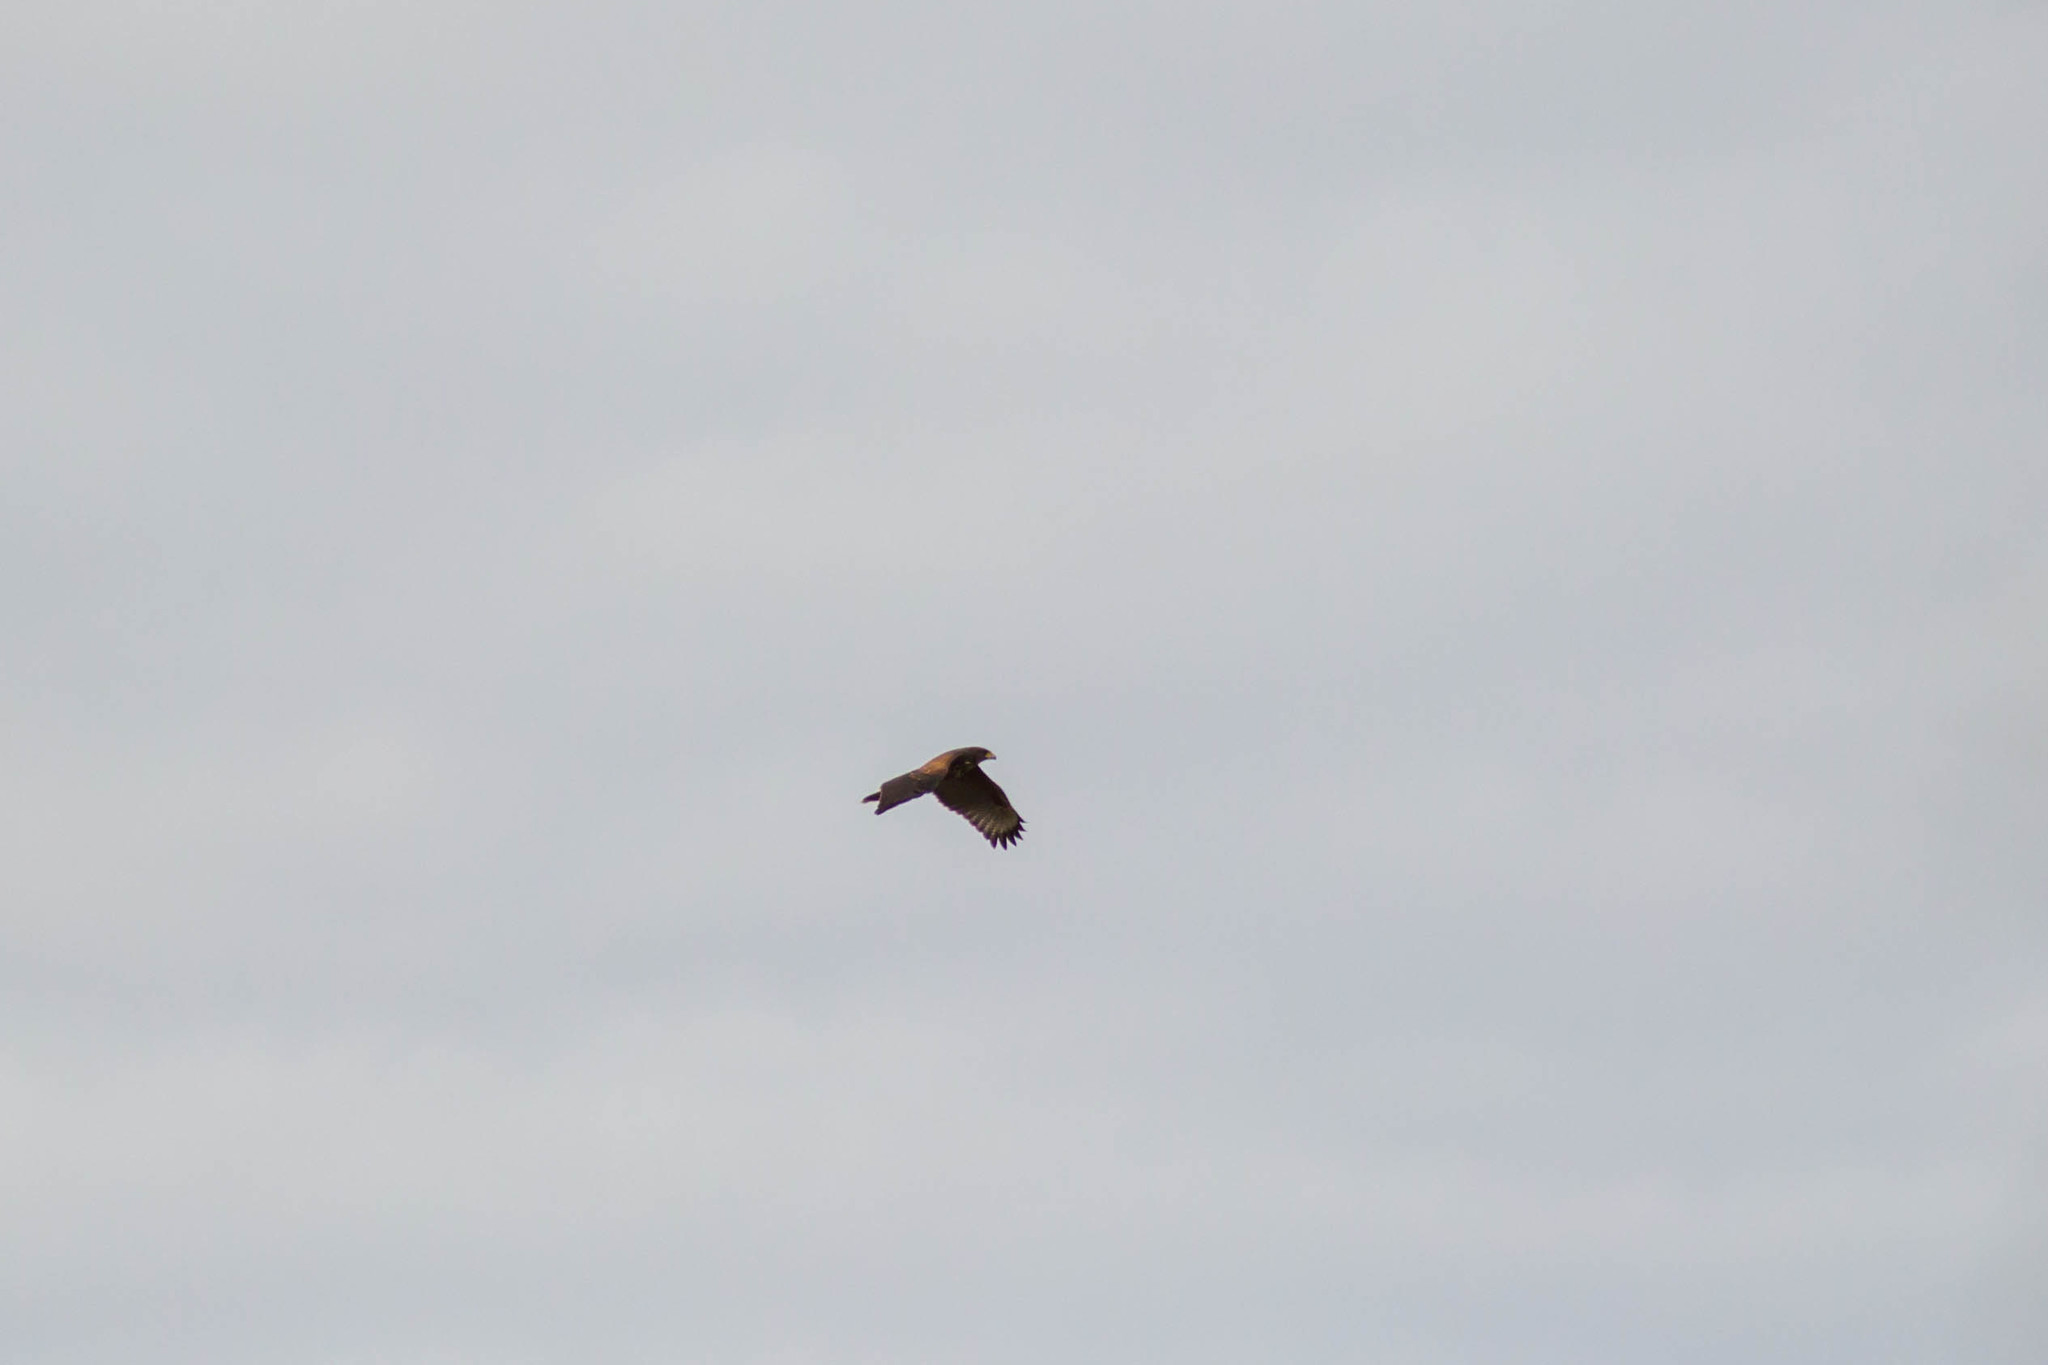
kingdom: Animalia
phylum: Chordata
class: Aves
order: Accipitriformes
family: Accipitridae
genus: Parabuteo
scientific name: Parabuteo unicinctus
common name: Harris's hawk
